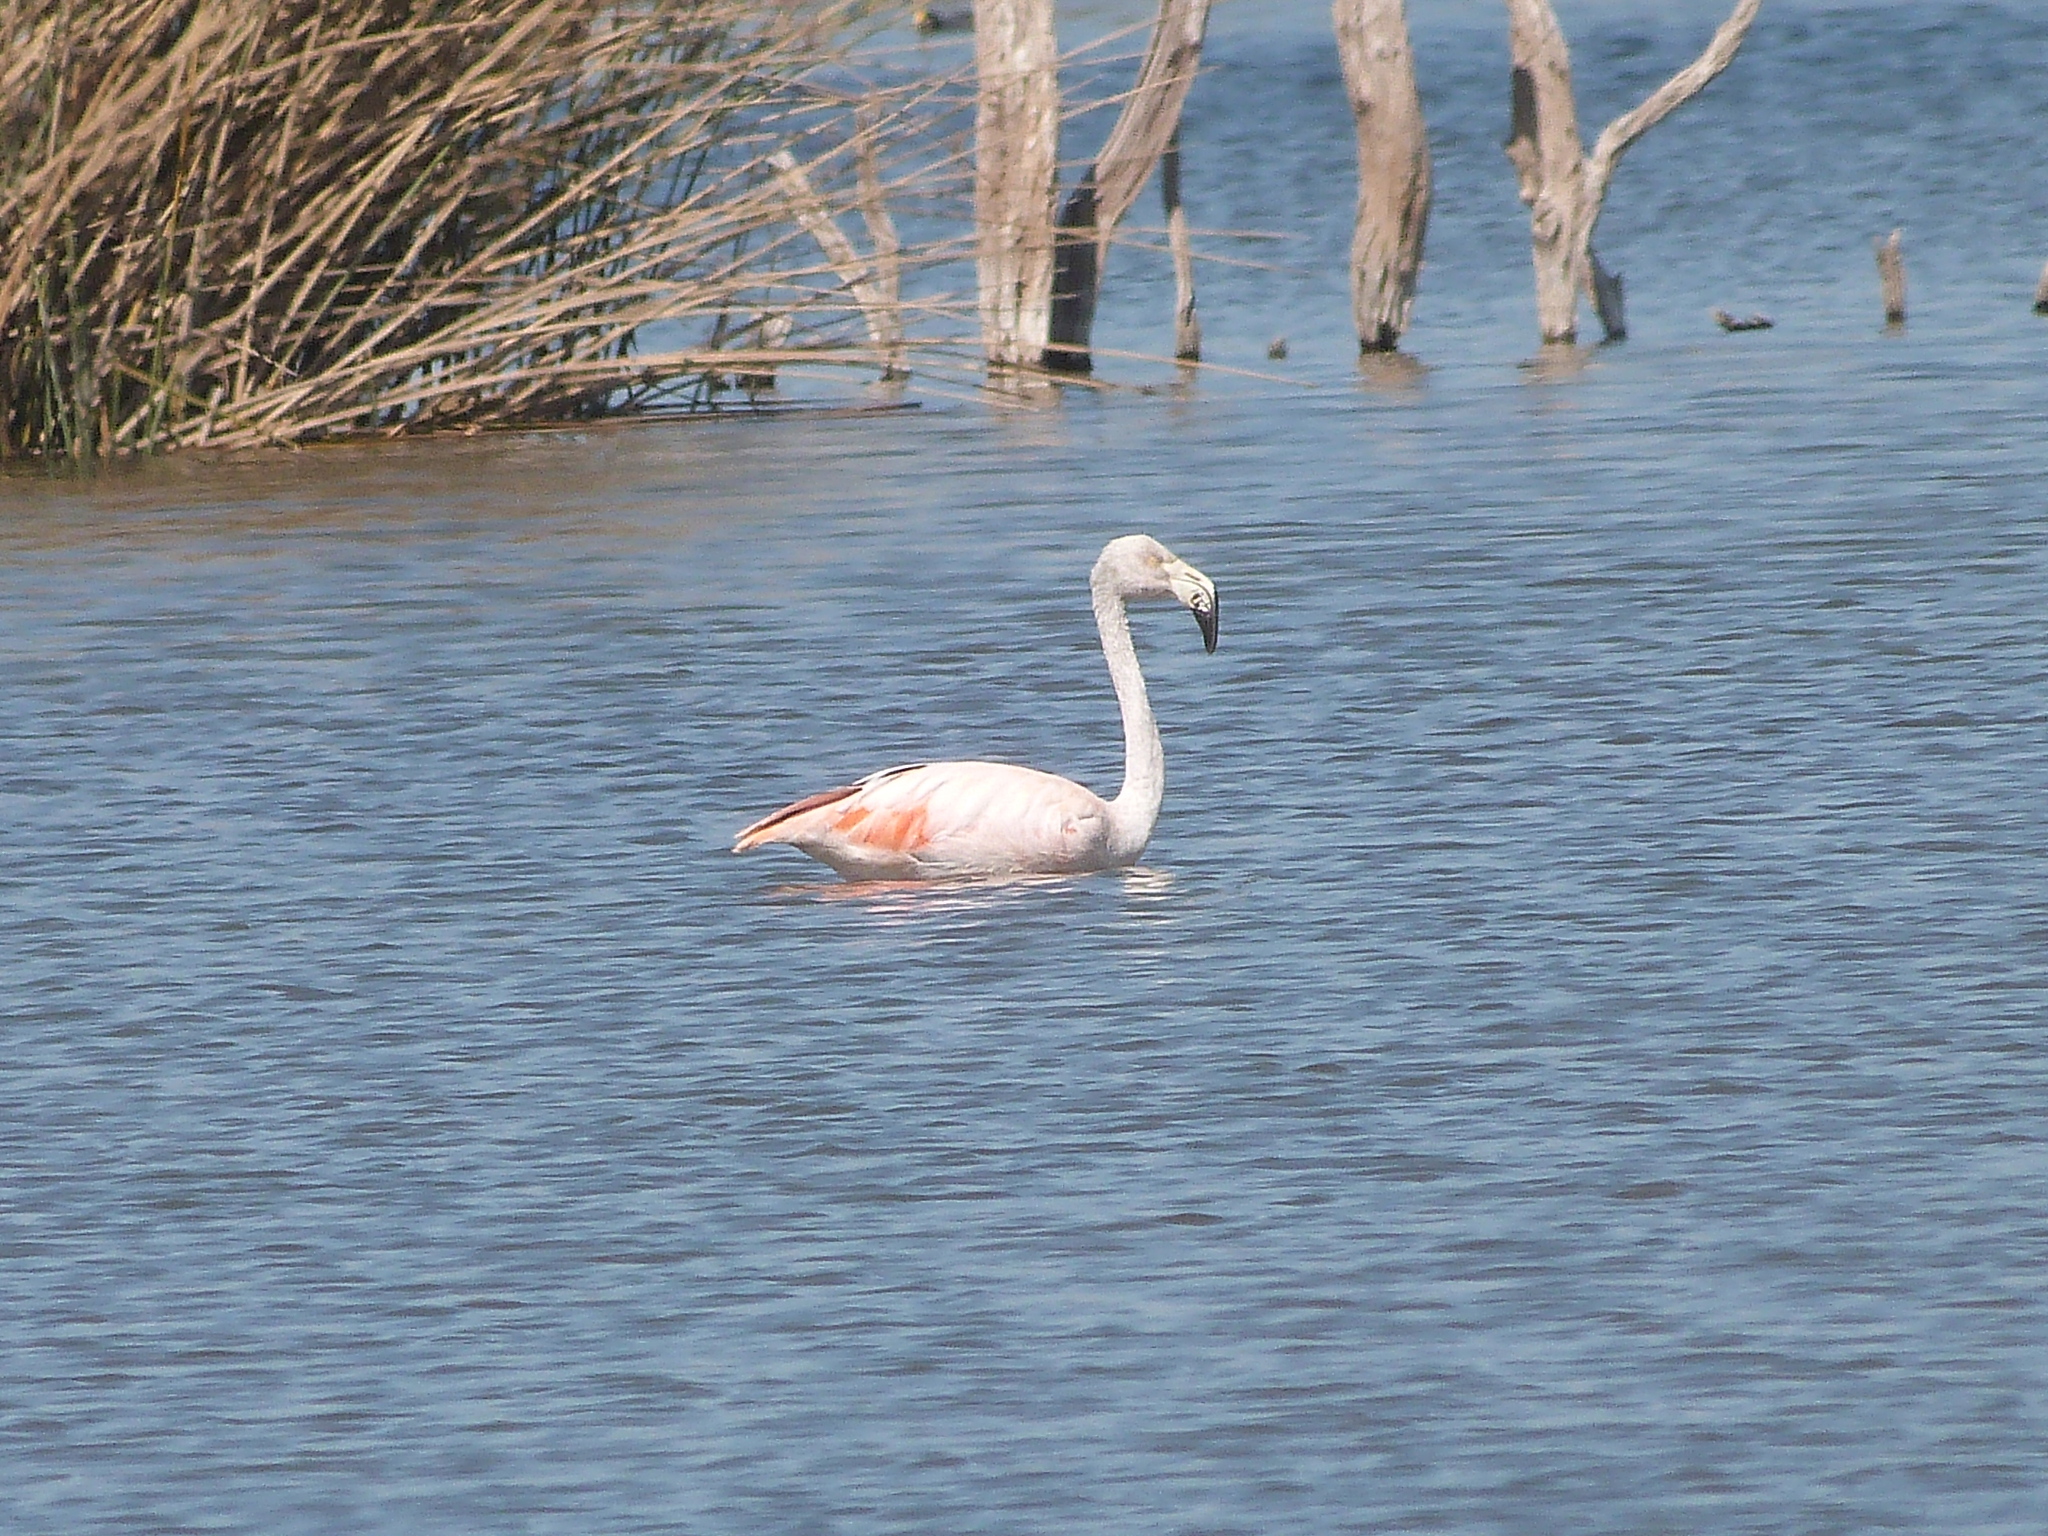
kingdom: Animalia
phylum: Chordata
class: Aves
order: Phoenicopteriformes
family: Phoenicopteridae
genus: Phoenicopterus
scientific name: Phoenicopterus chilensis
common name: Chilean flamingo
